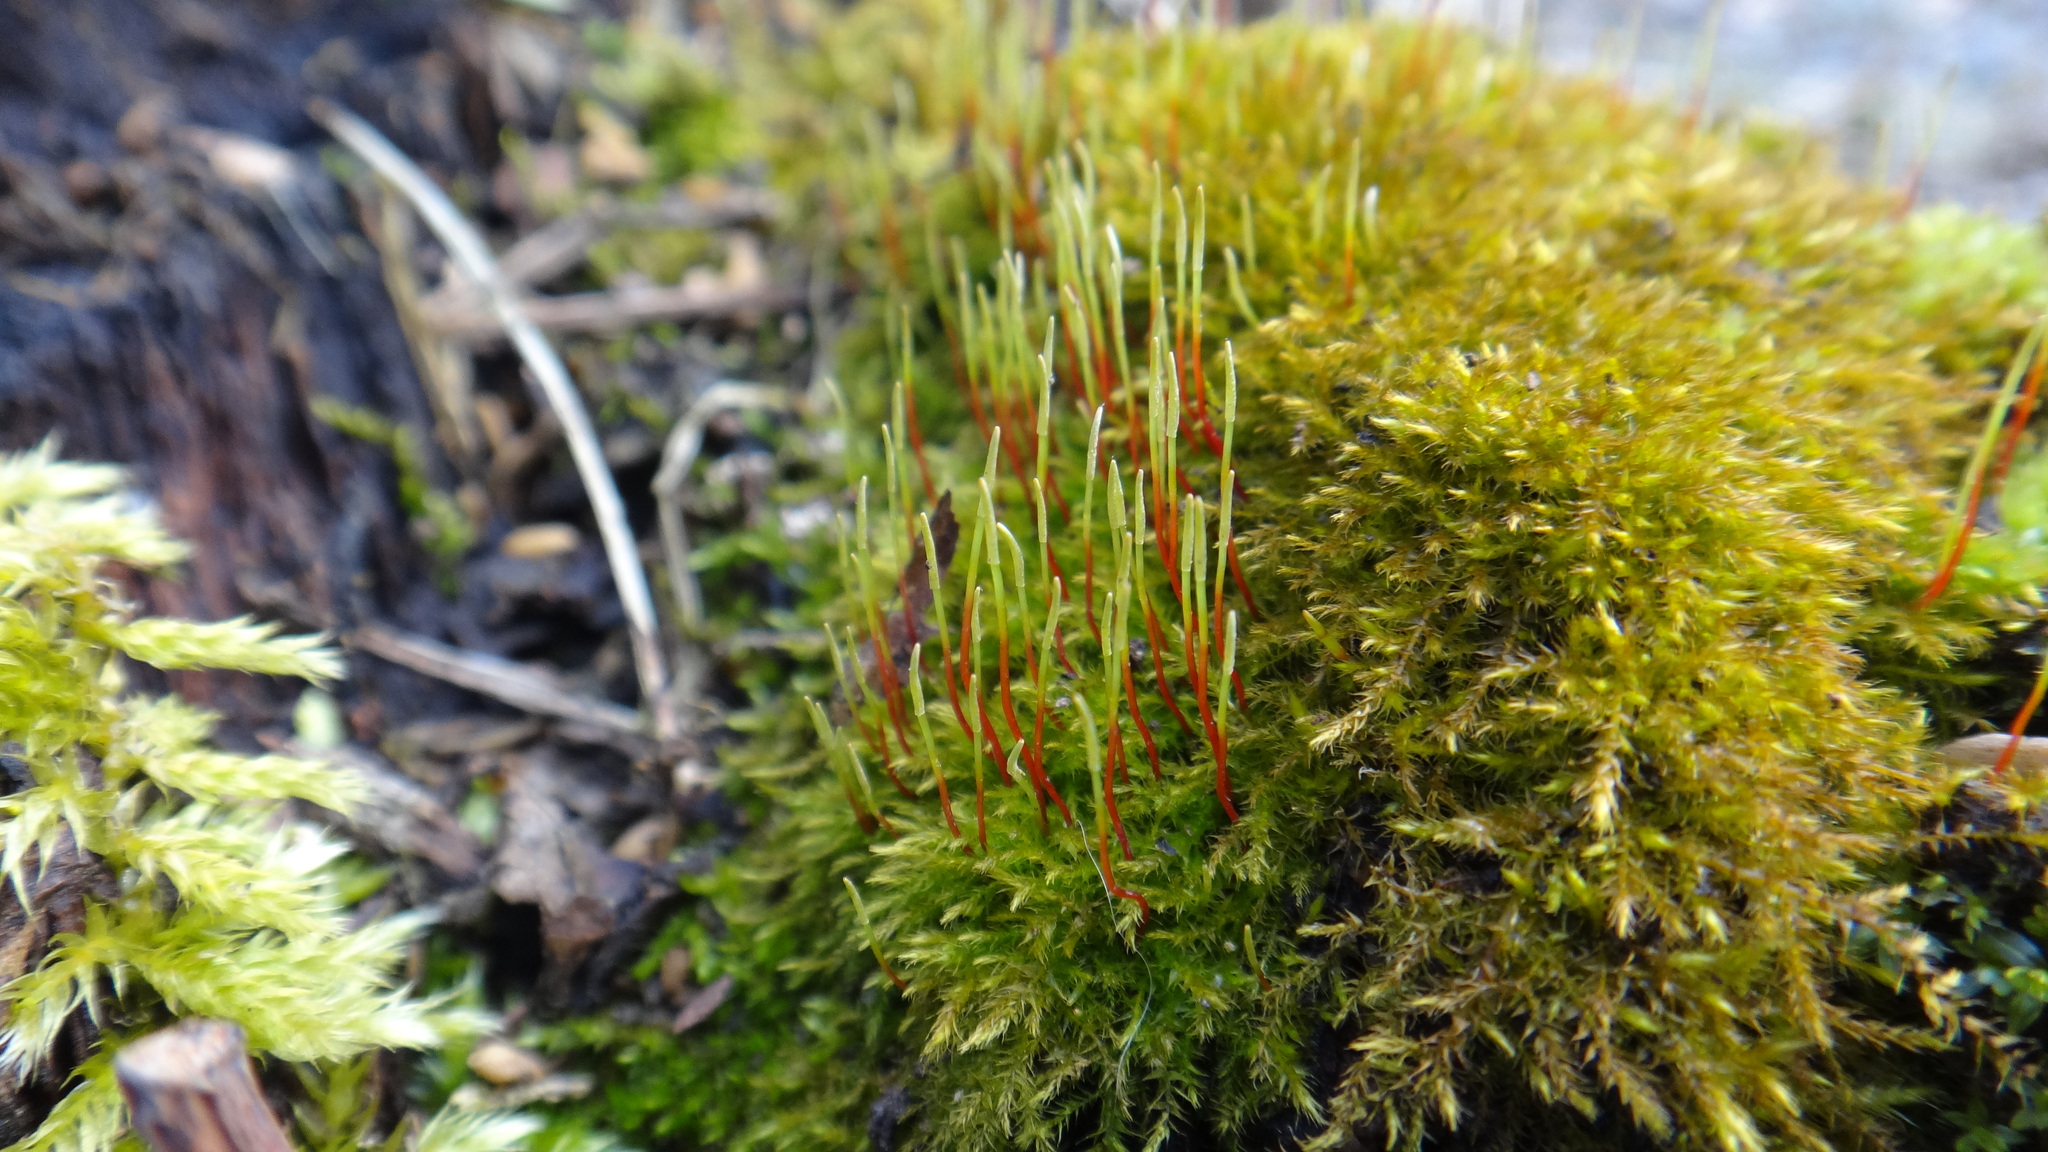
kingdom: Plantae
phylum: Bryophyta
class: Bryopsida
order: Hypnales
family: Amblystegiaceae
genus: Amblystegium
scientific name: Amblystegium serpens
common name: Jurkatzka's feather moss
